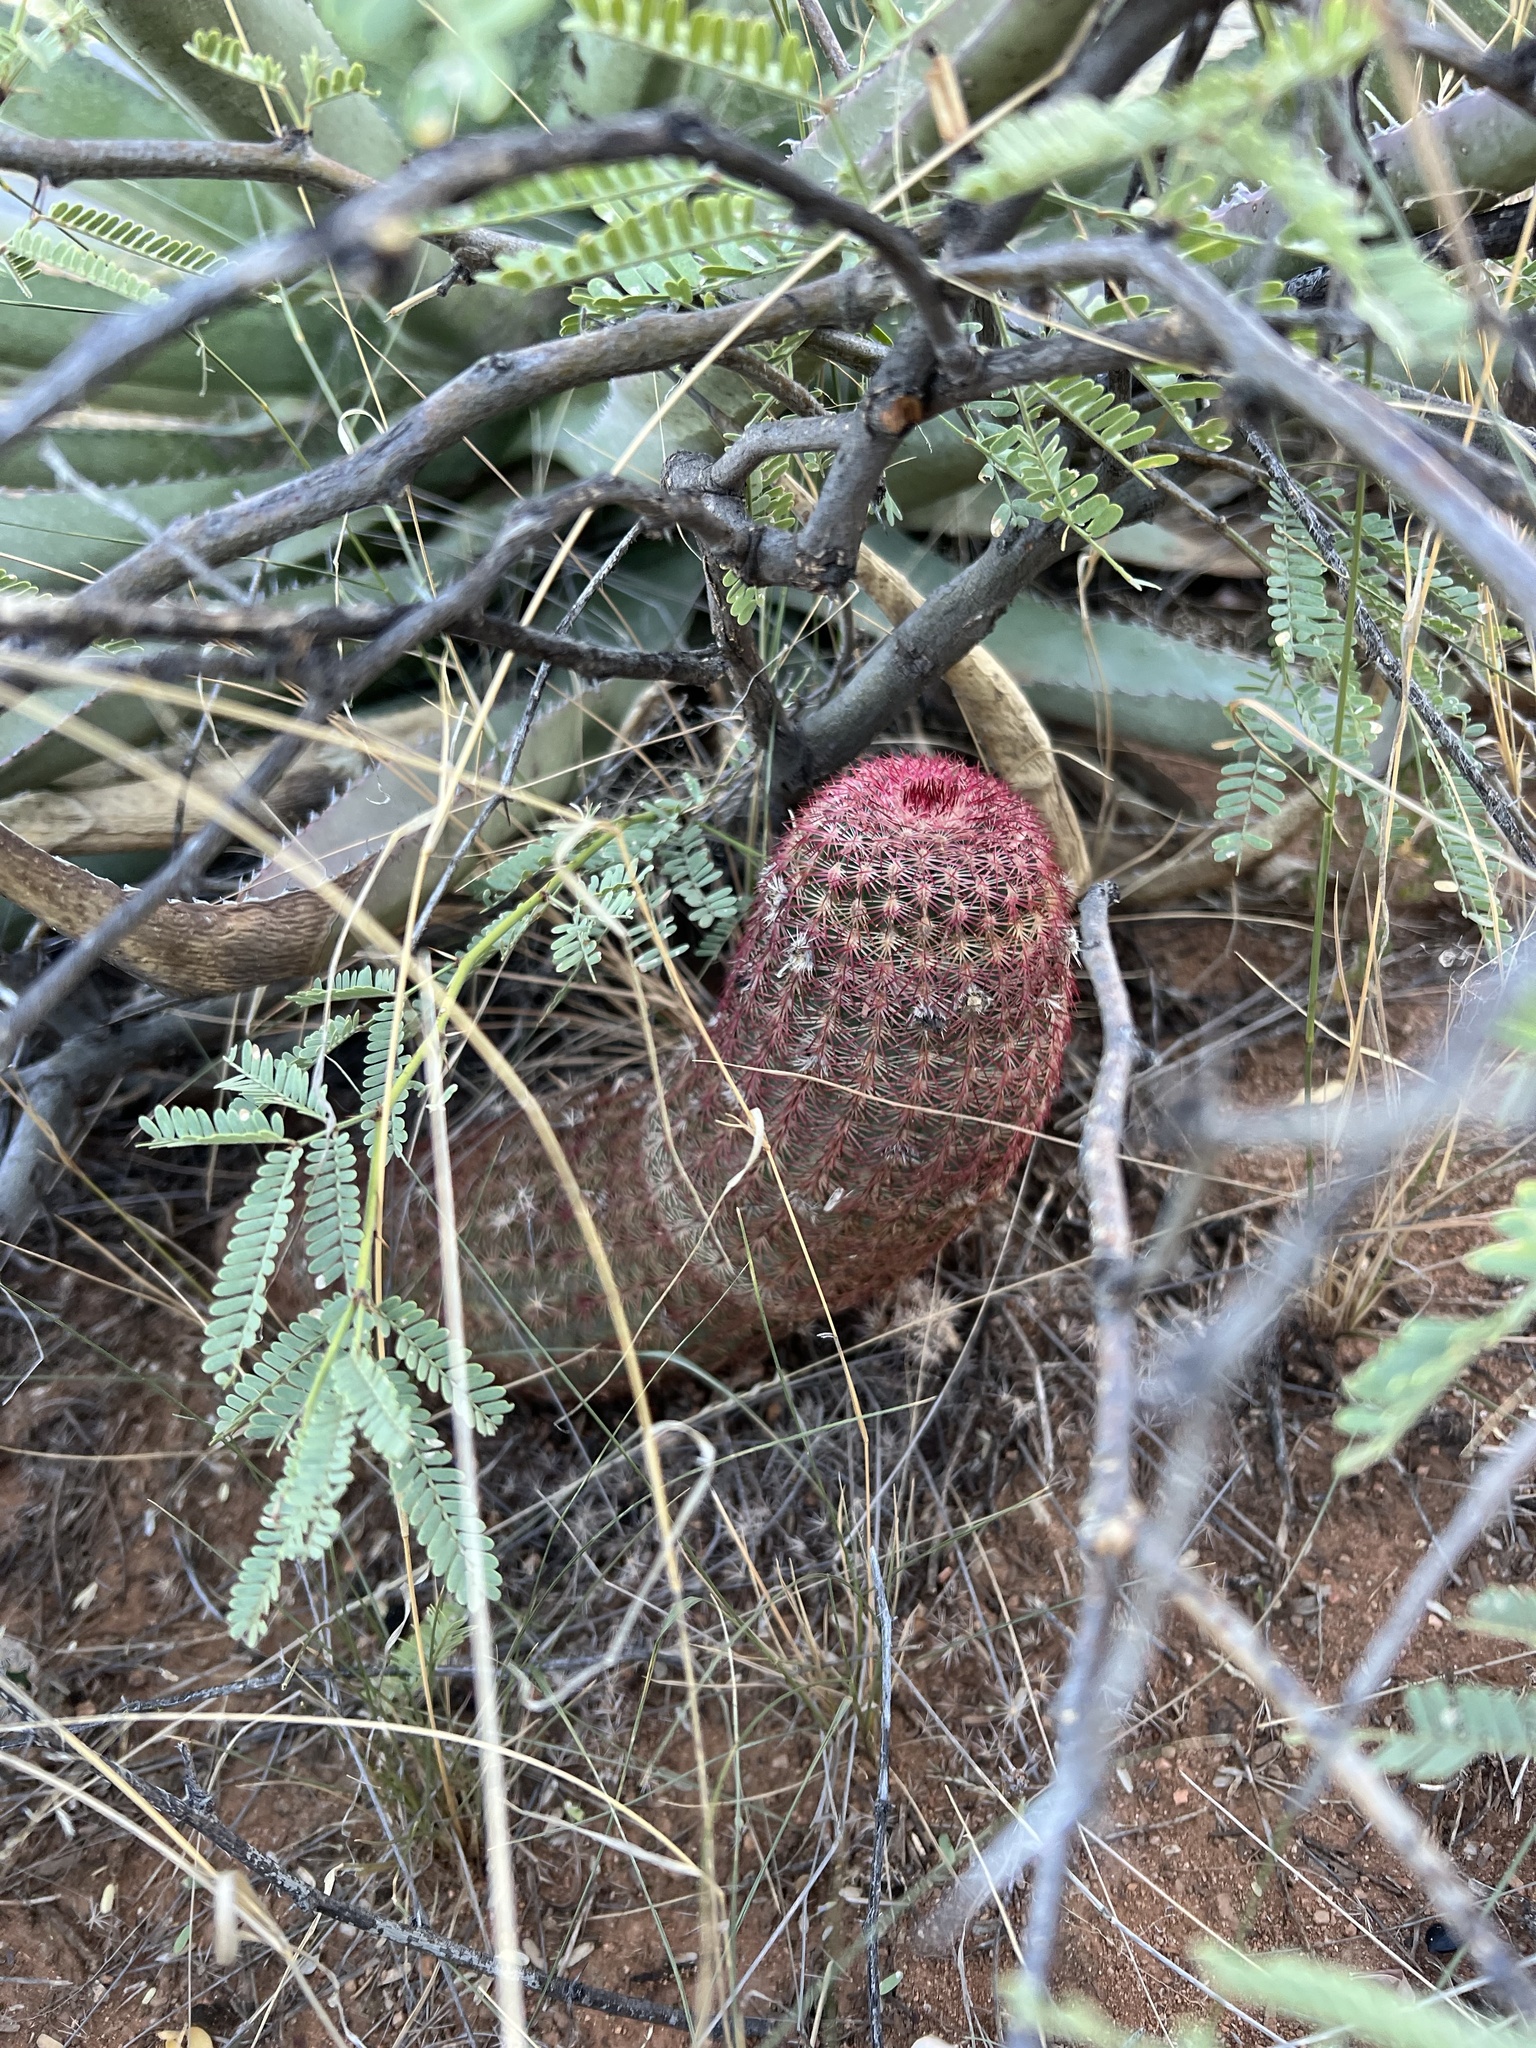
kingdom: Plantae
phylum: Tracheophyta
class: Magnoliopsida
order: Caryophyllales
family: Cactaceae
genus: Echinocereus
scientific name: Echinocereus rigidissimus
